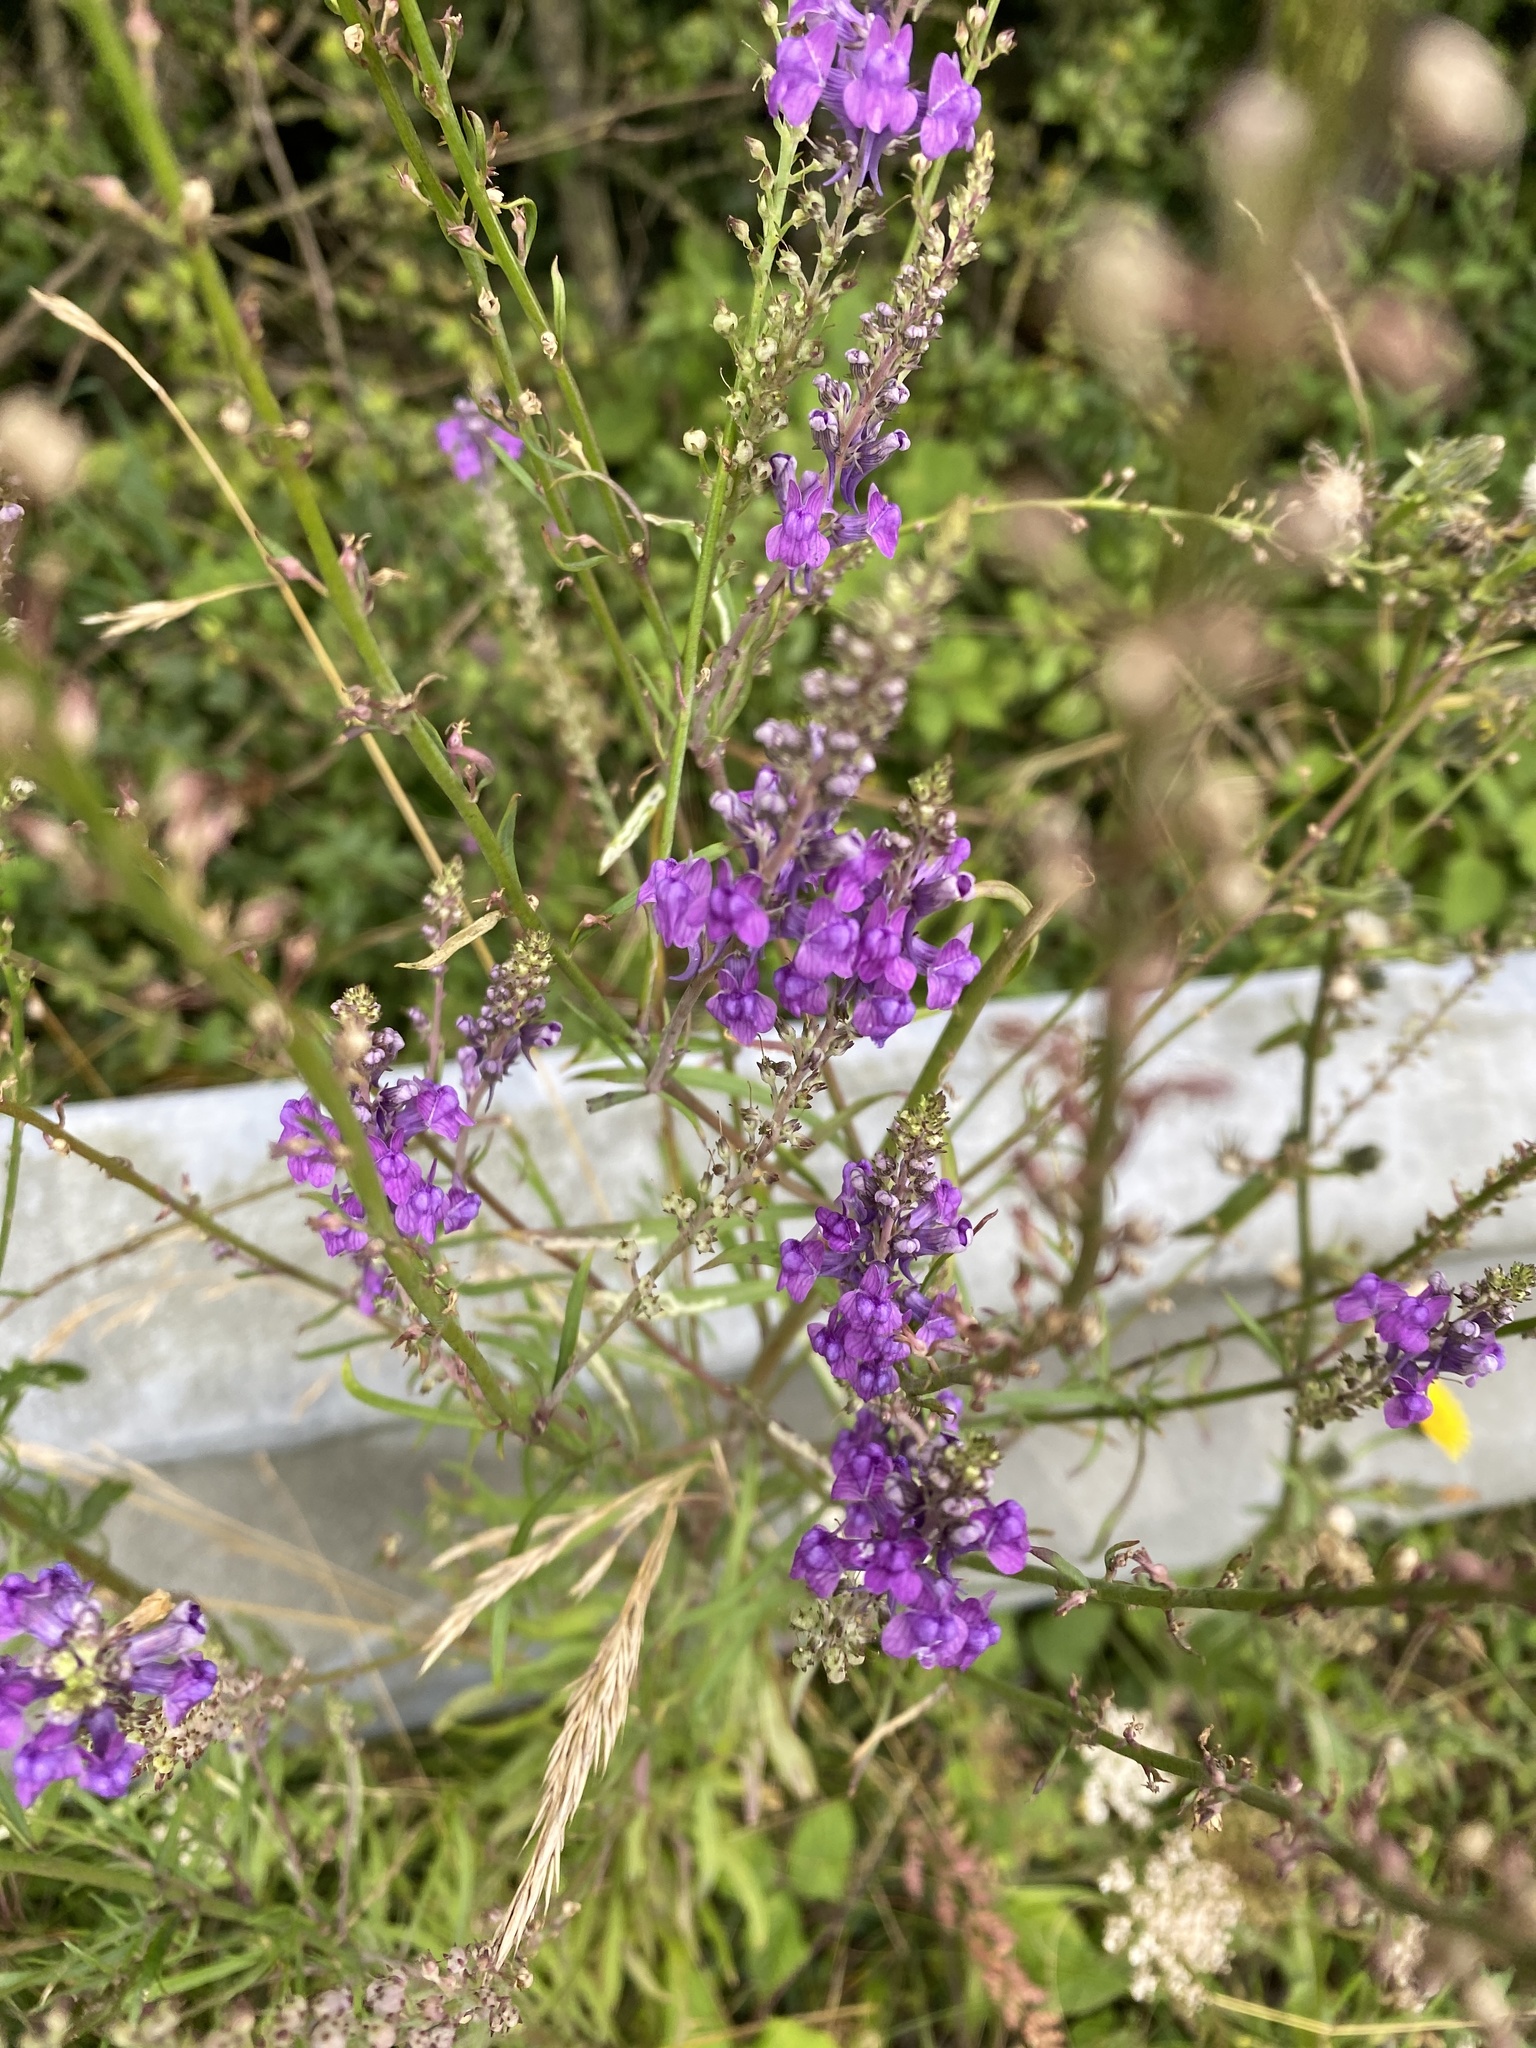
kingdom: Plantae
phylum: Tracheophyta
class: Magnoliopsida
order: Lamiales
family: Plantaginaceae
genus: Linaria
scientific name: Linaria purpurea
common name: Purple toadflax
